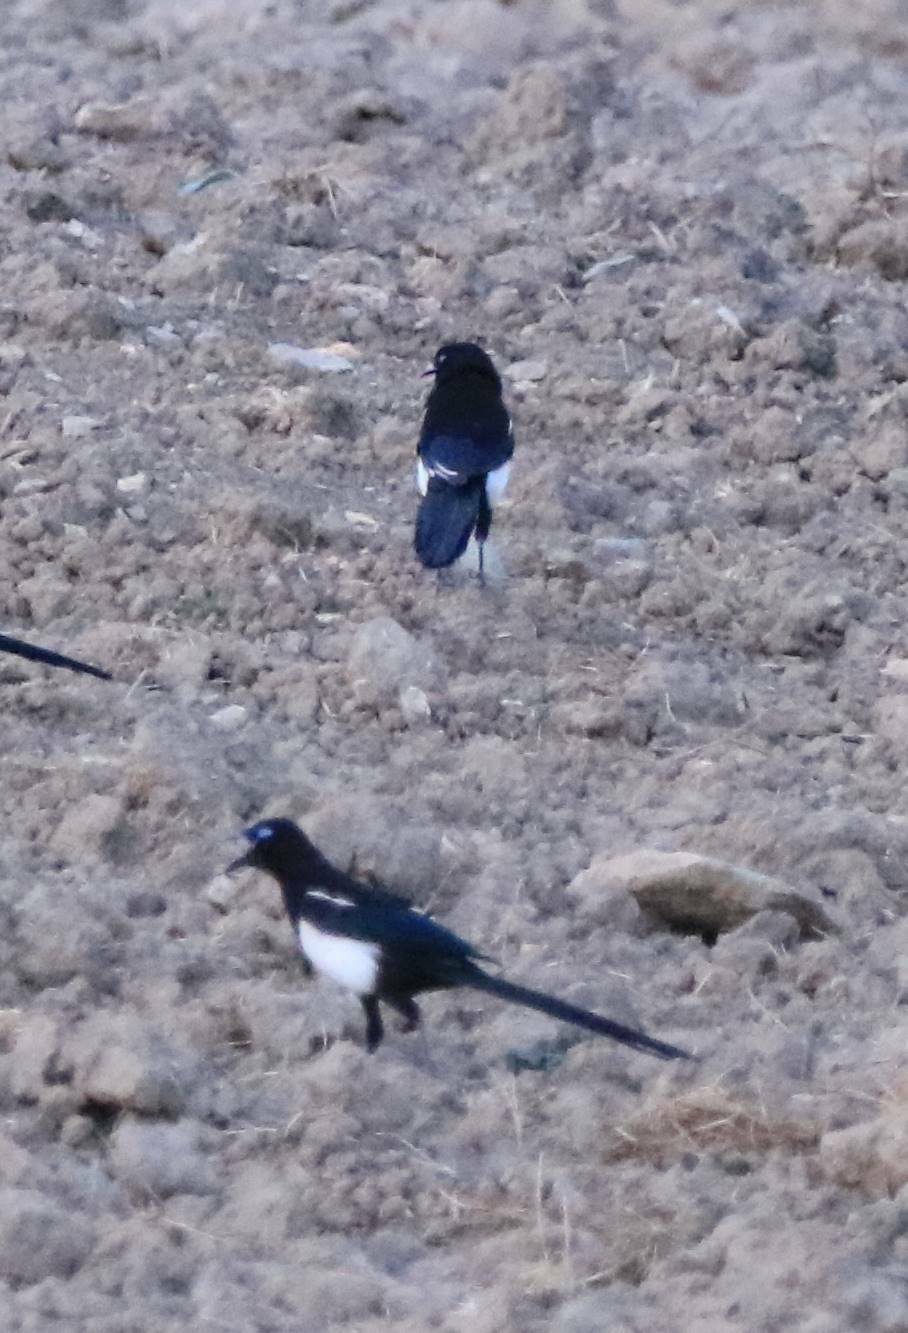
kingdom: Animalia
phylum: Chordata
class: Aves
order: Passeriformes
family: Corvidae
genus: Pica
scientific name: Pica mauritanica
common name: Maghreb magpie
